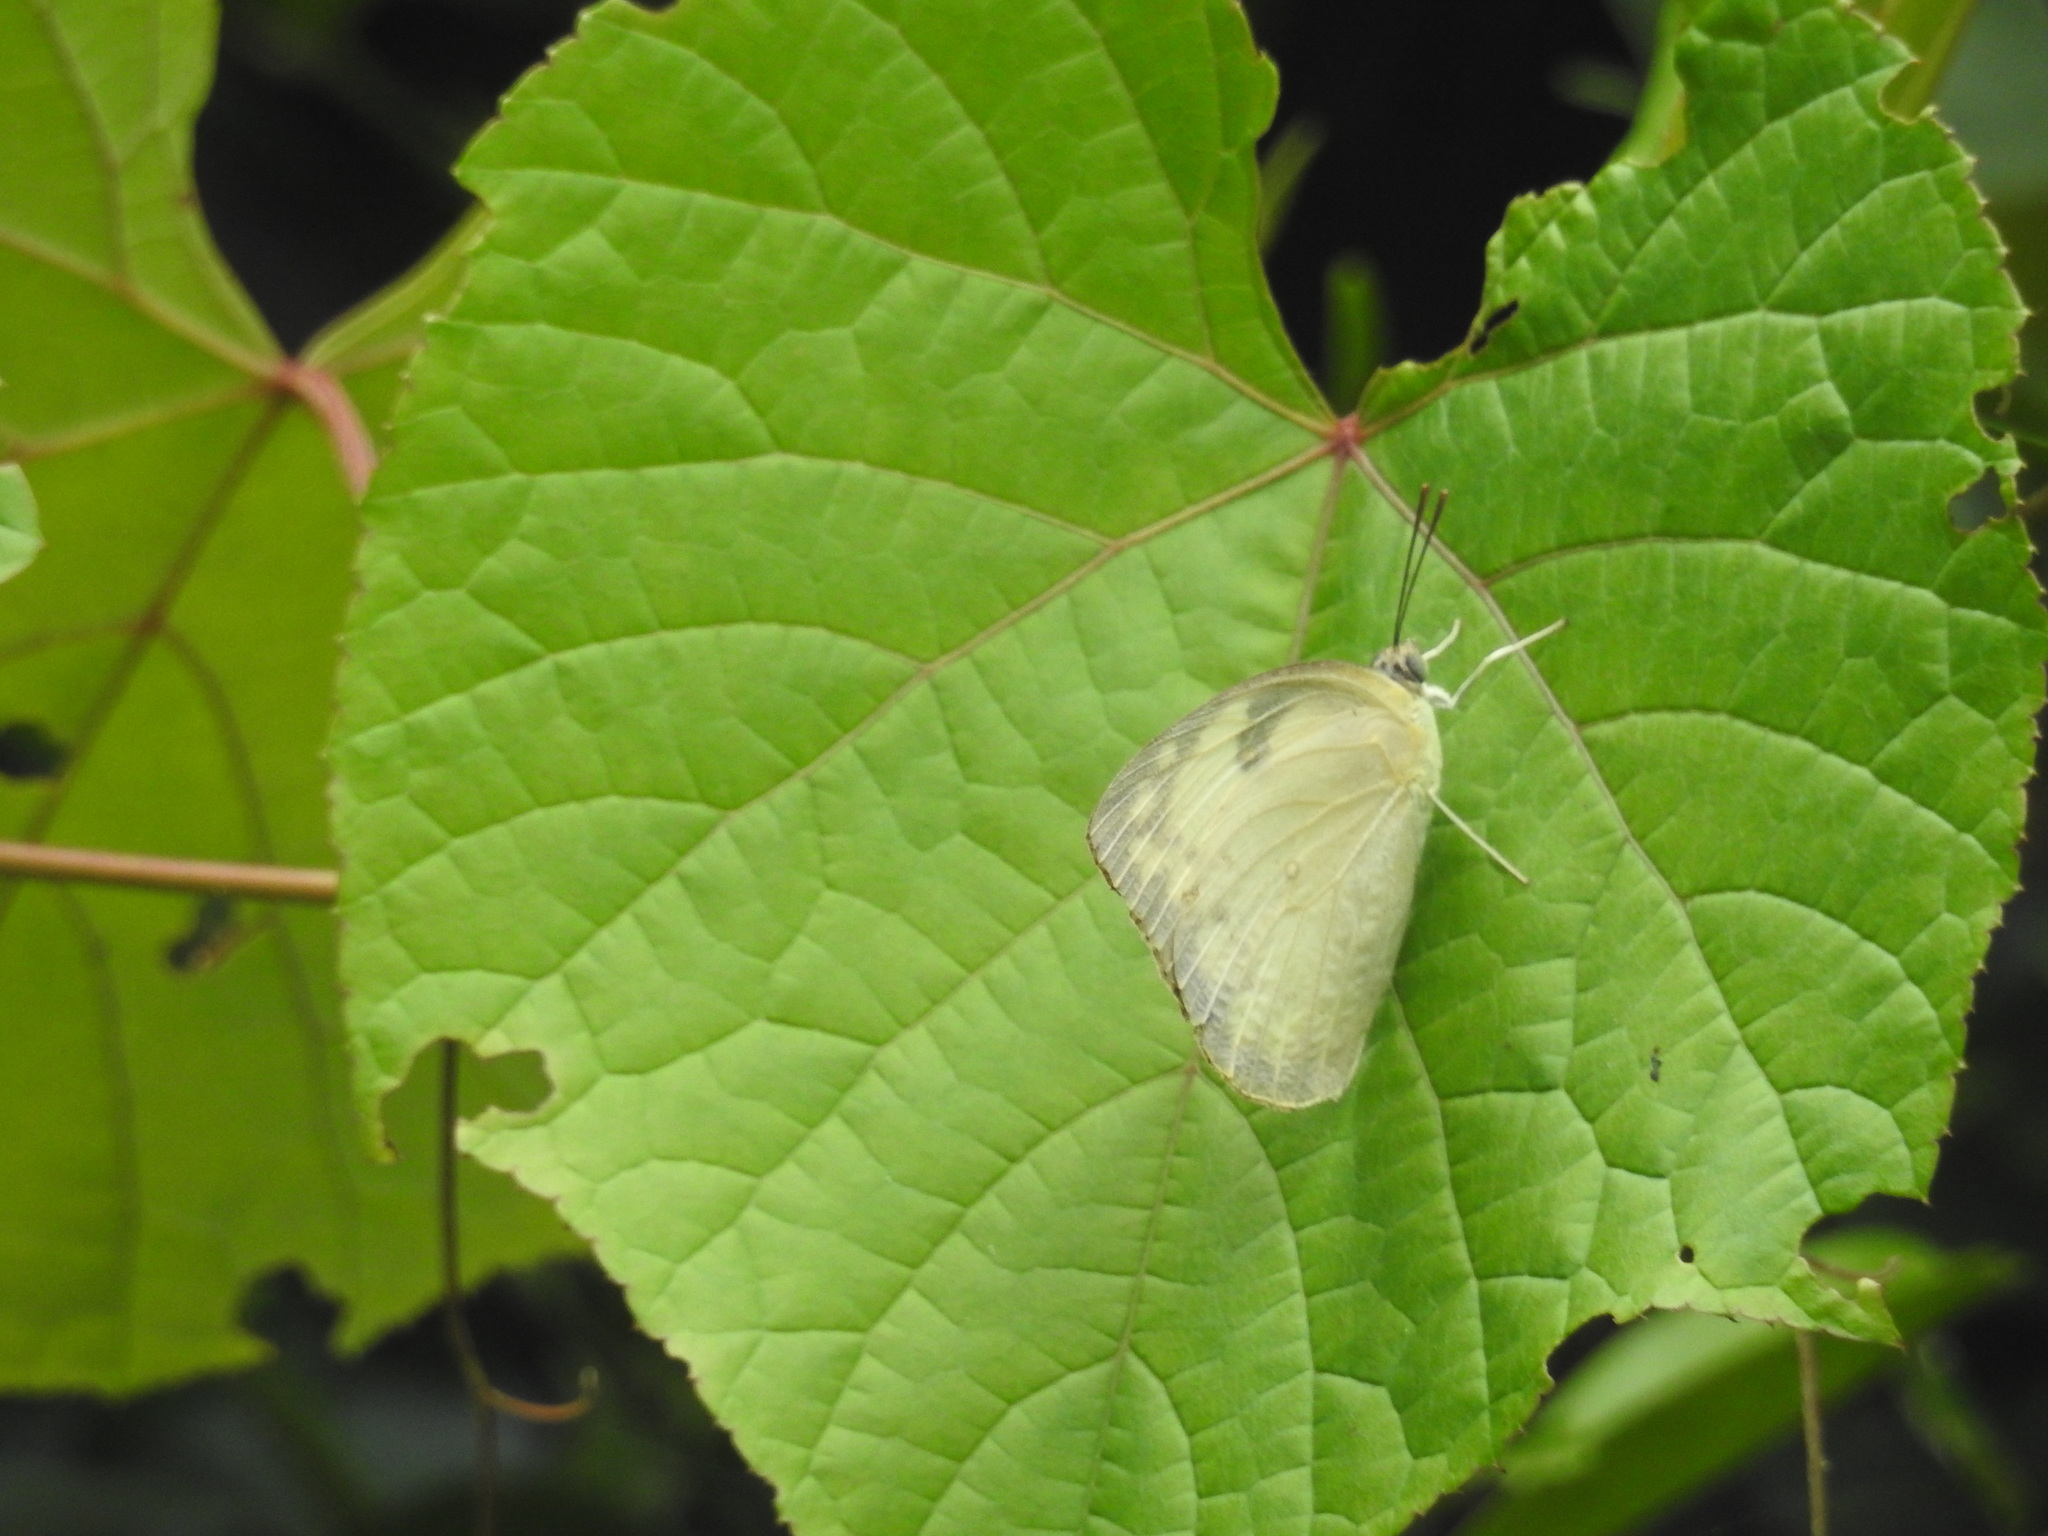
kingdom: Animalia
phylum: Arthropoda
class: Insecta
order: Lepidoptera
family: Pieridae
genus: Catopsilia
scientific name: Catopsilia pomona
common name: Common emigrant
